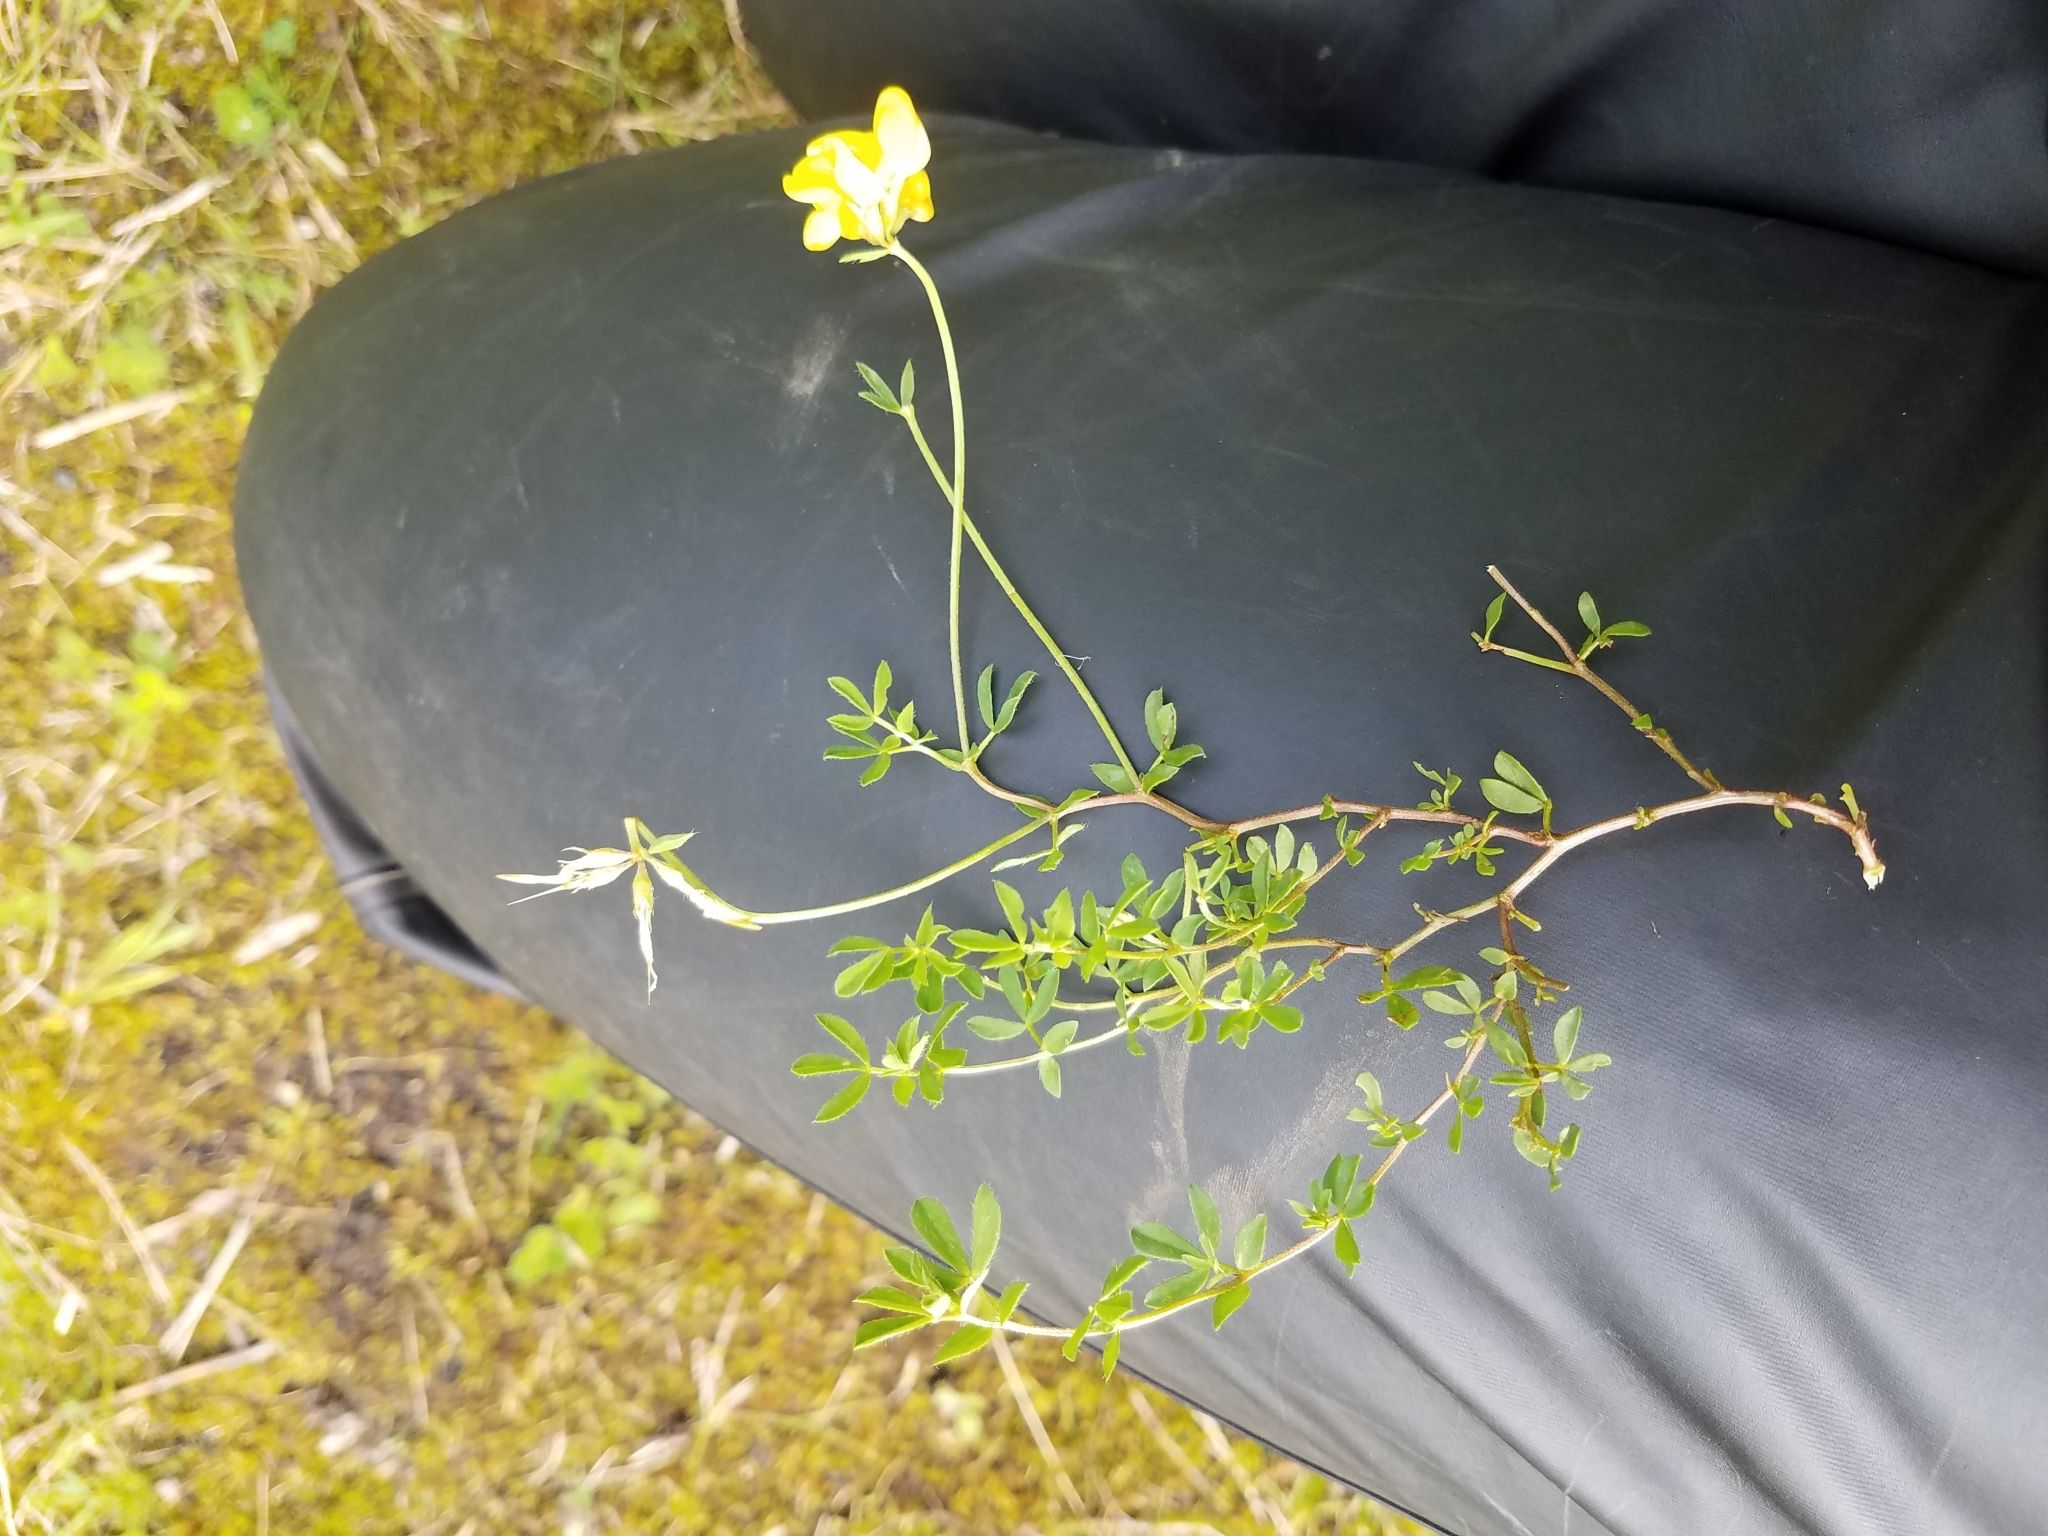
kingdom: Plantae
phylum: Tracheophyta
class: Magnoliopsida
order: Fabales
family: Fabaceae
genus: Lotus
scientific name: Lotus corniculatus
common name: Common bird's-foot-trefoil
